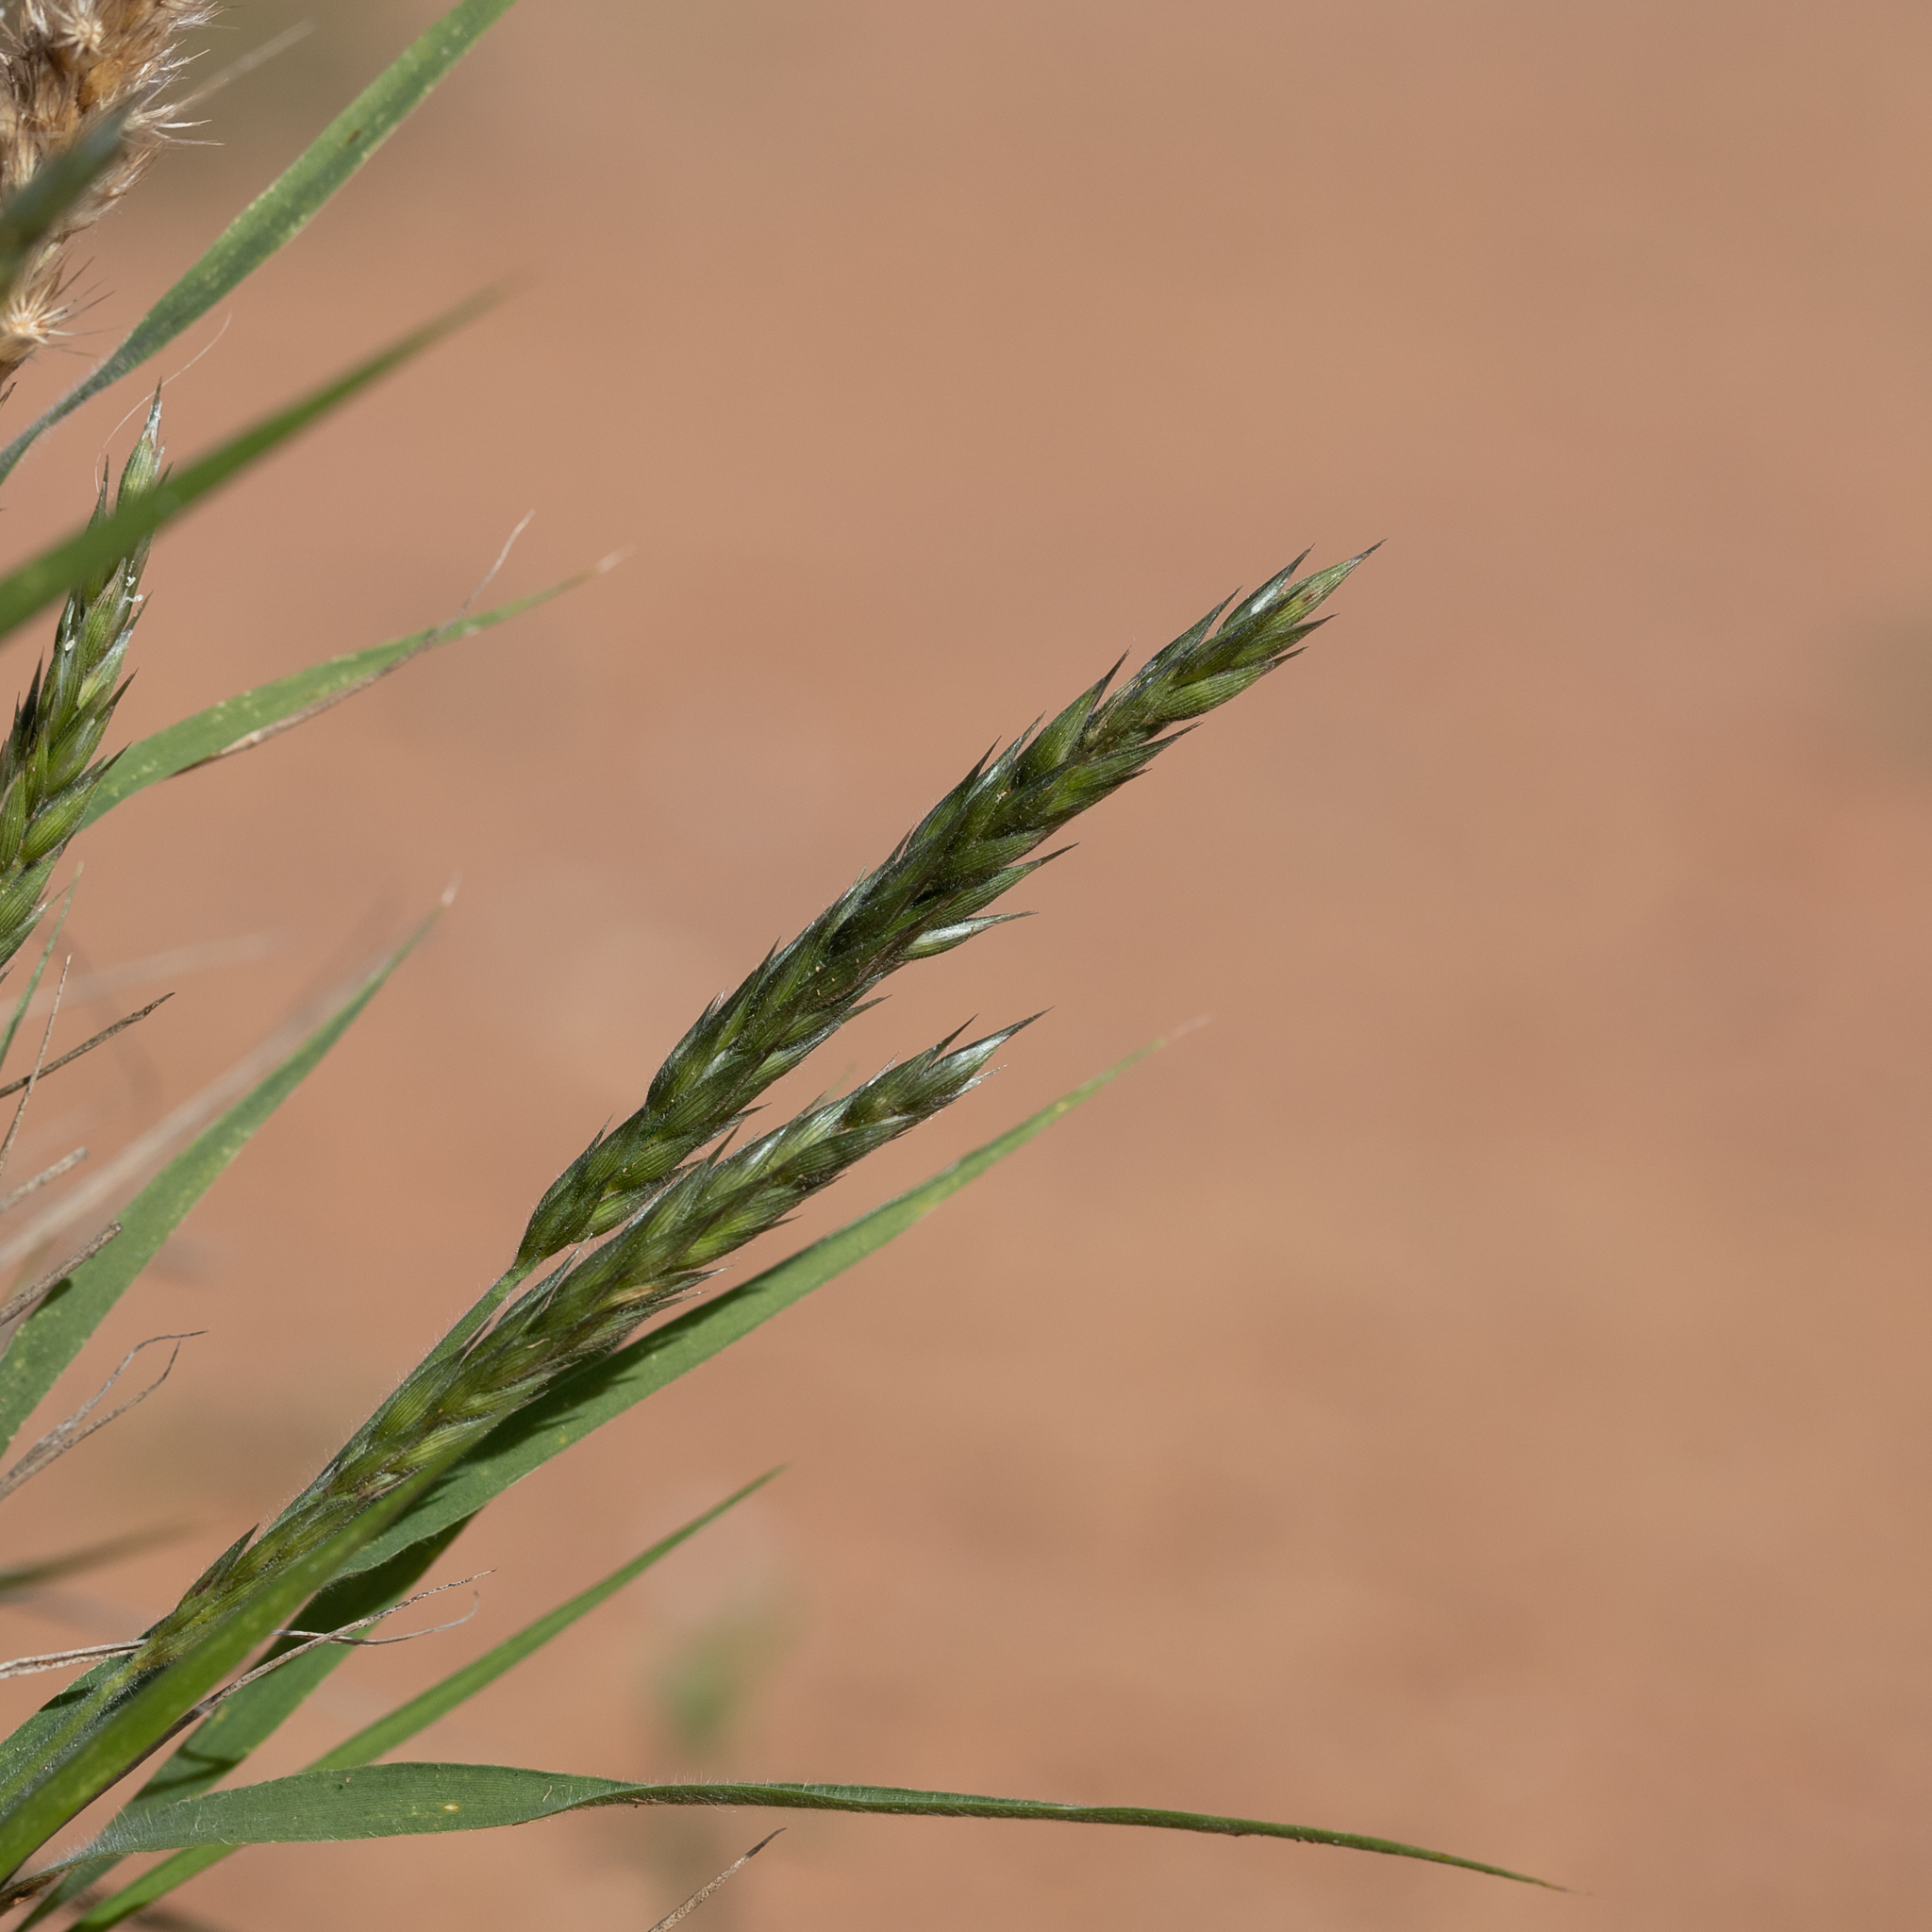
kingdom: Plantae
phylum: Tracheophyta
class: Liliopsida
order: Poales
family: Poaceae
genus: Enneapogon
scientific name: Enneapogon polyphyllus
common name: Leafy nineawn
